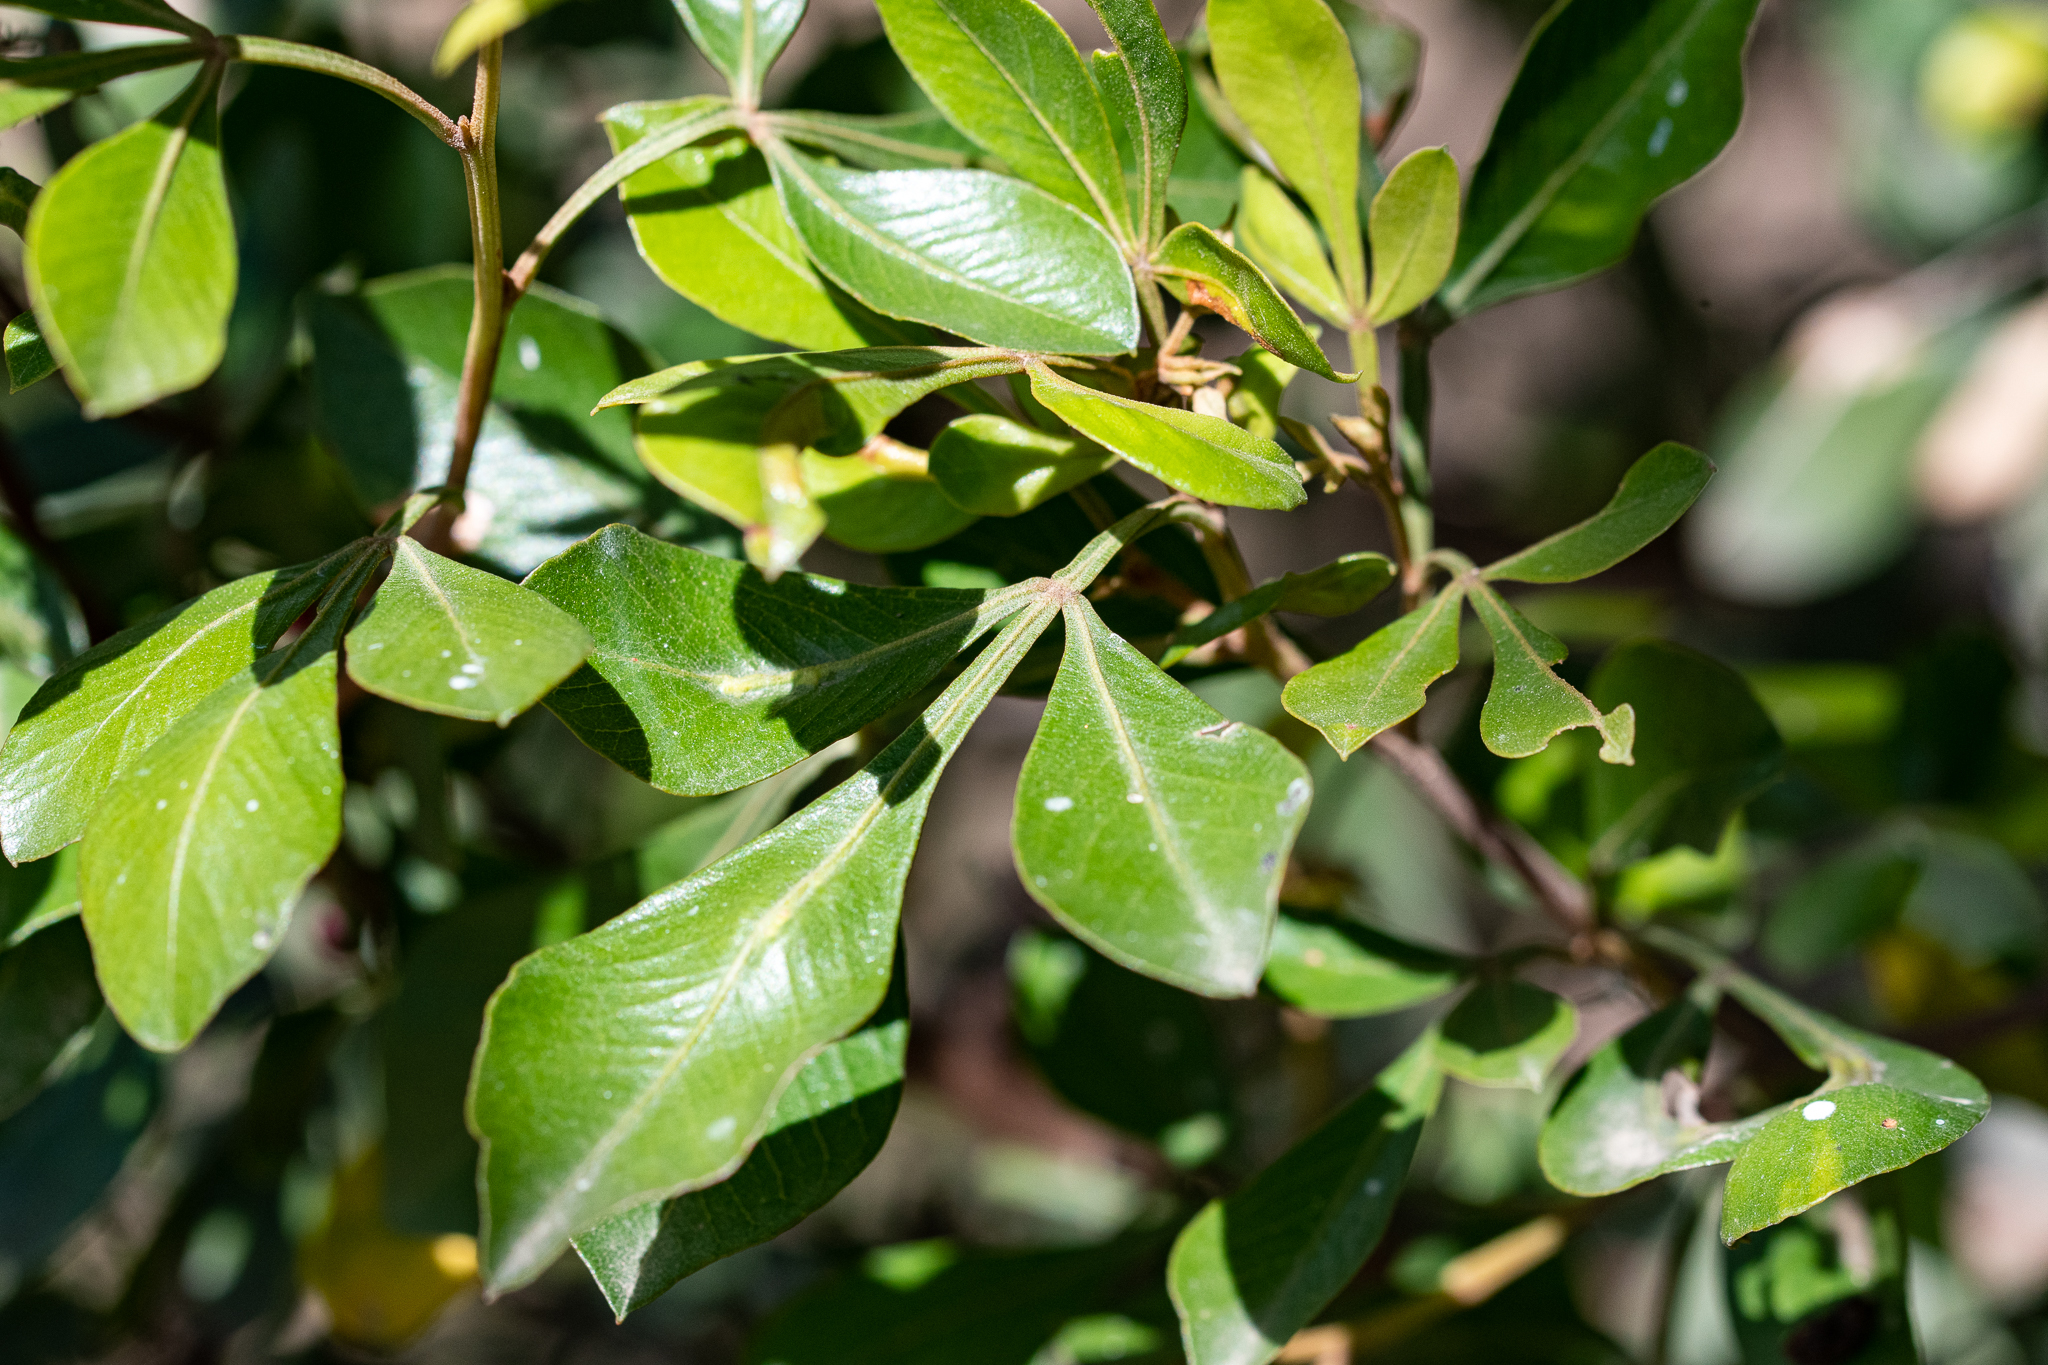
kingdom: Plantae
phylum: Tracheophyta
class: Magnoliopsida
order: Sapindales
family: Anacardiaceae
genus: Searsia
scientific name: Searsia pallens
